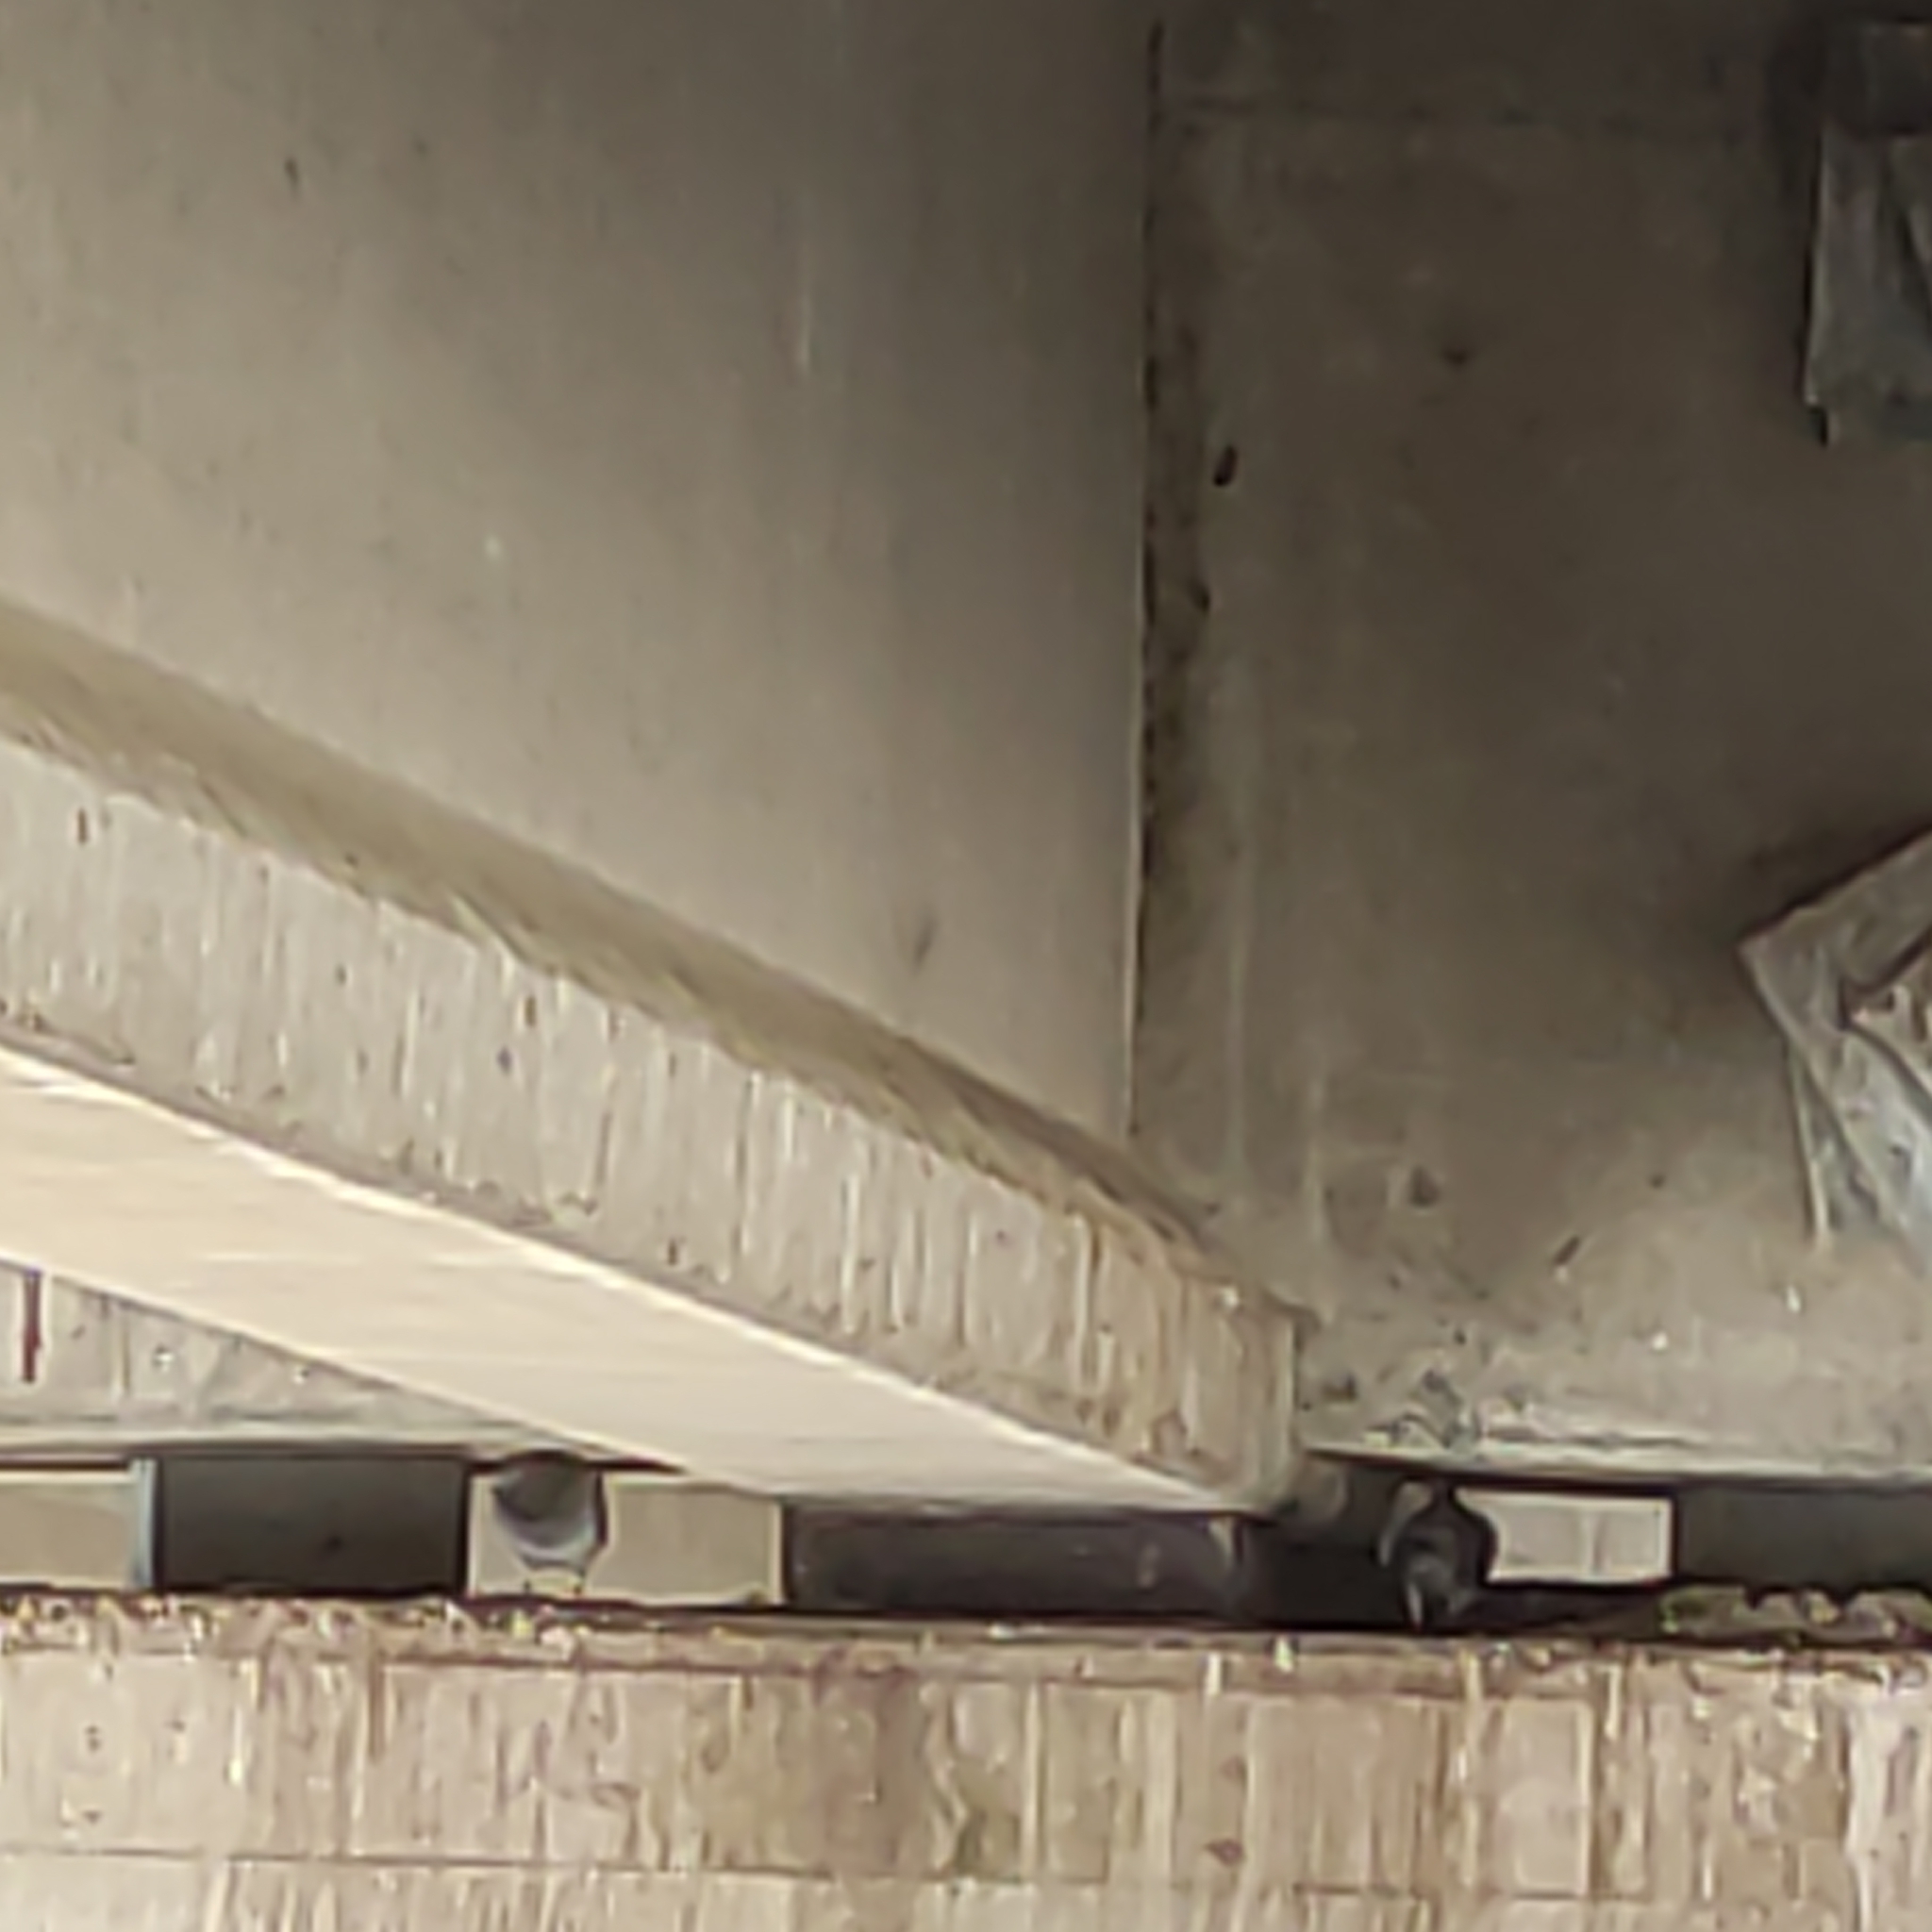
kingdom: Animalia
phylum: Chordata
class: Aves
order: Columbiformes
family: Columbidae
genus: Columba
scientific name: Columba livia
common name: Rock pigeon
